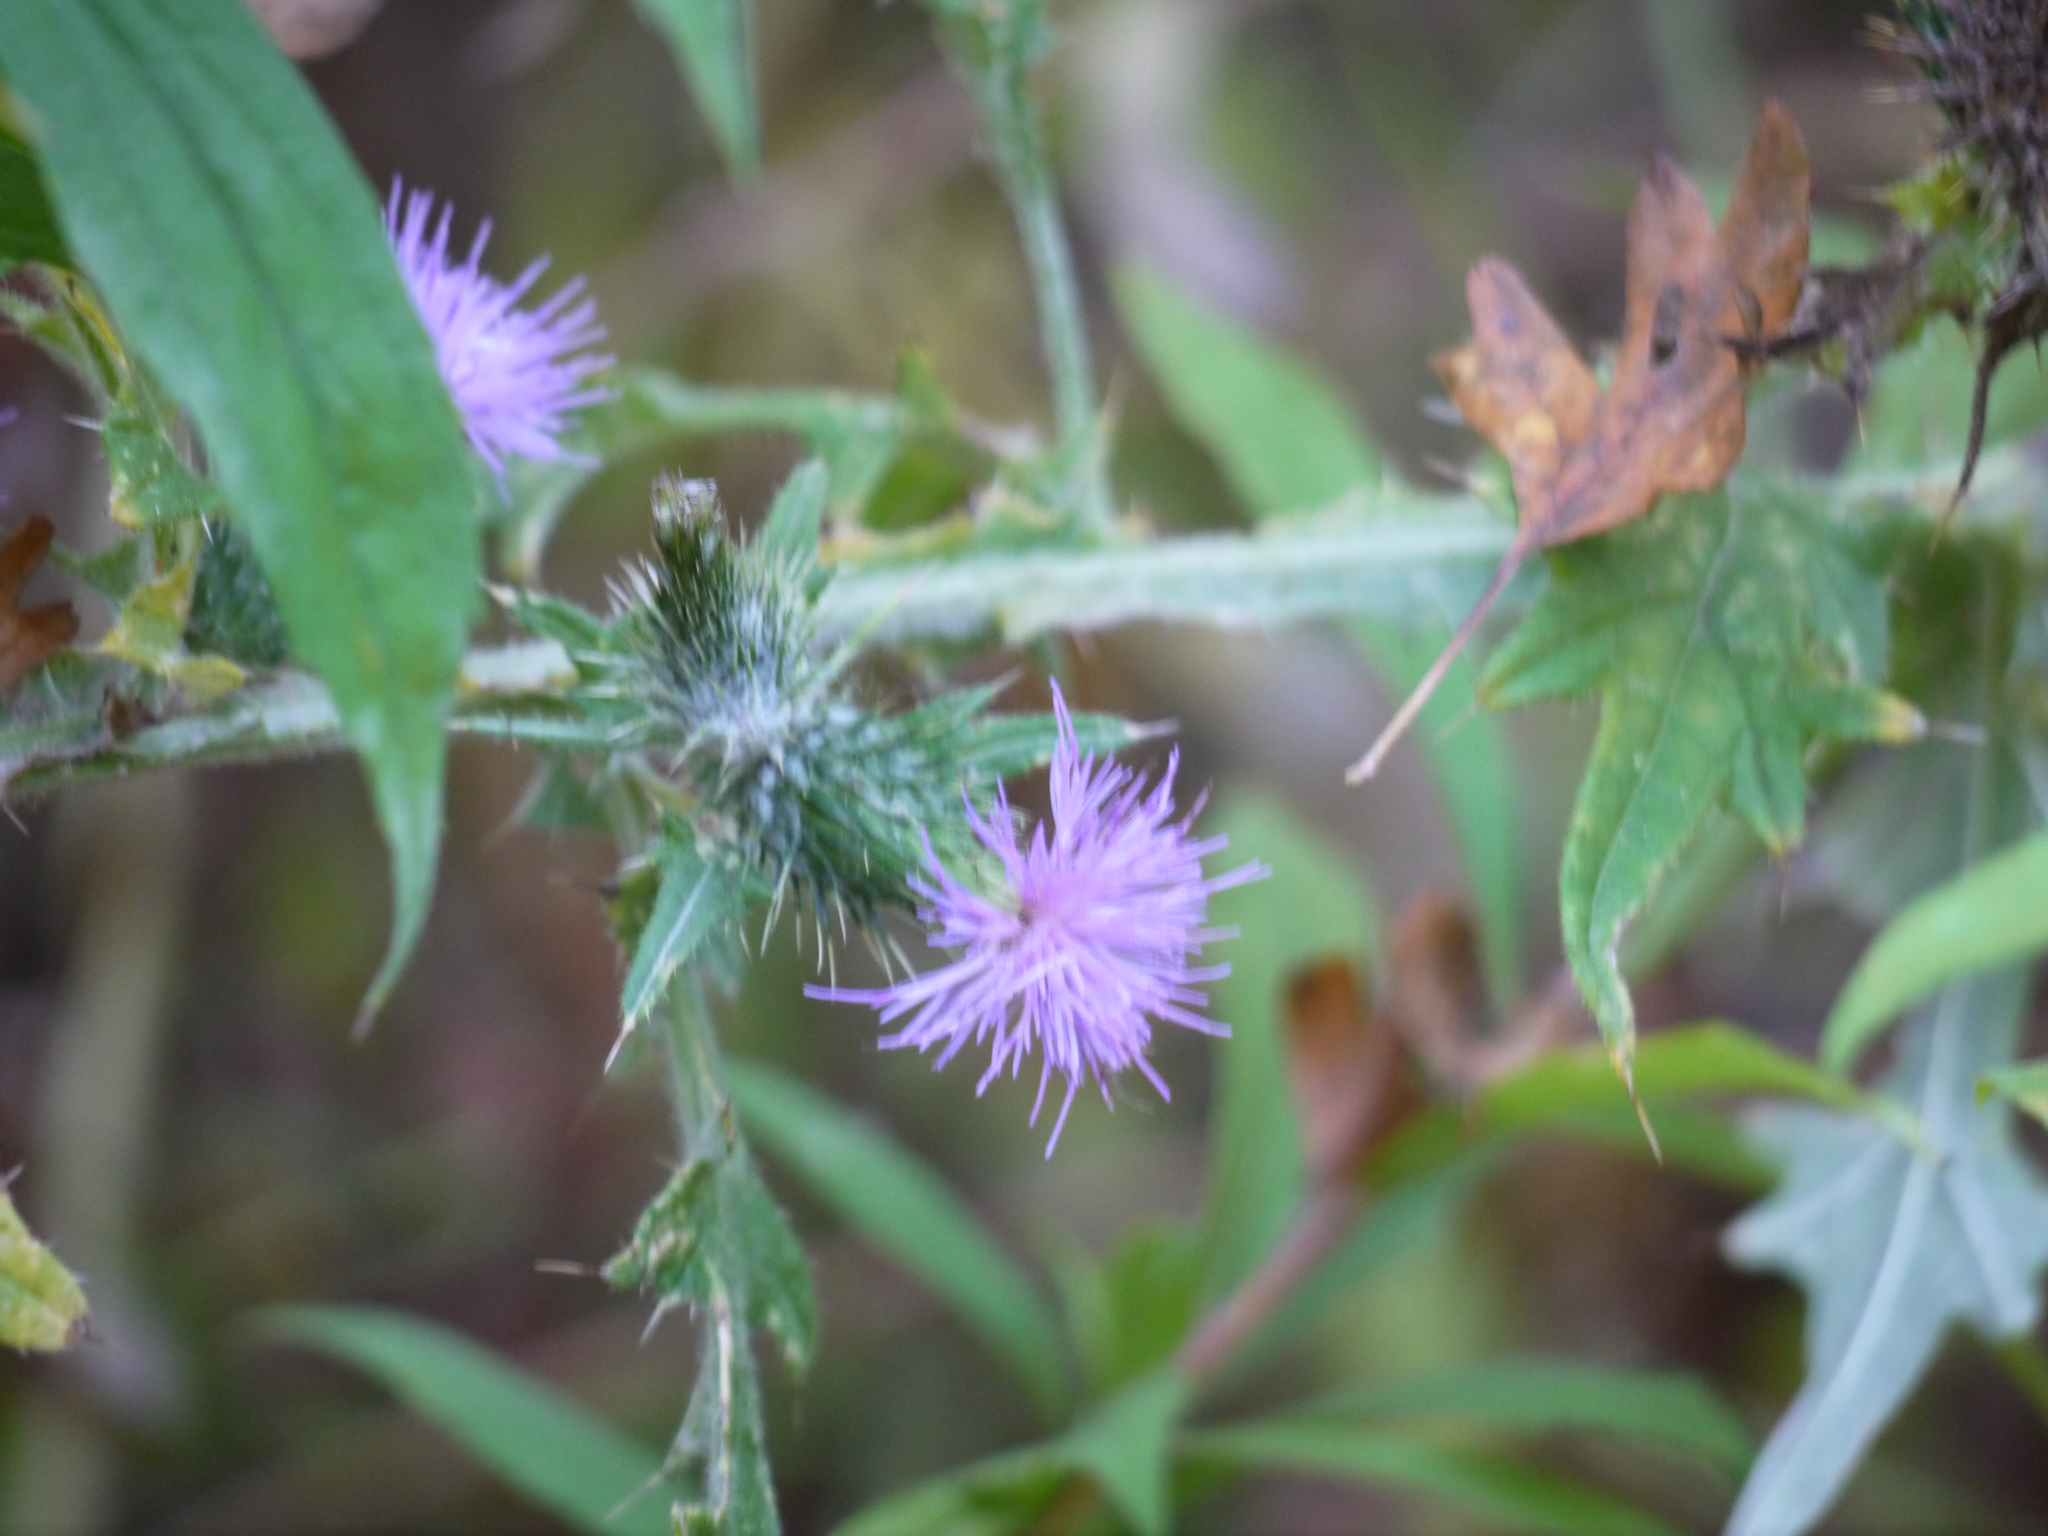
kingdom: Plantae
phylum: Tracheophyta
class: Magnoliopsida
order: Asterales
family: Asteraceae
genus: Cirsium
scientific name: Cirsium vulgare
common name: Bull thistle
